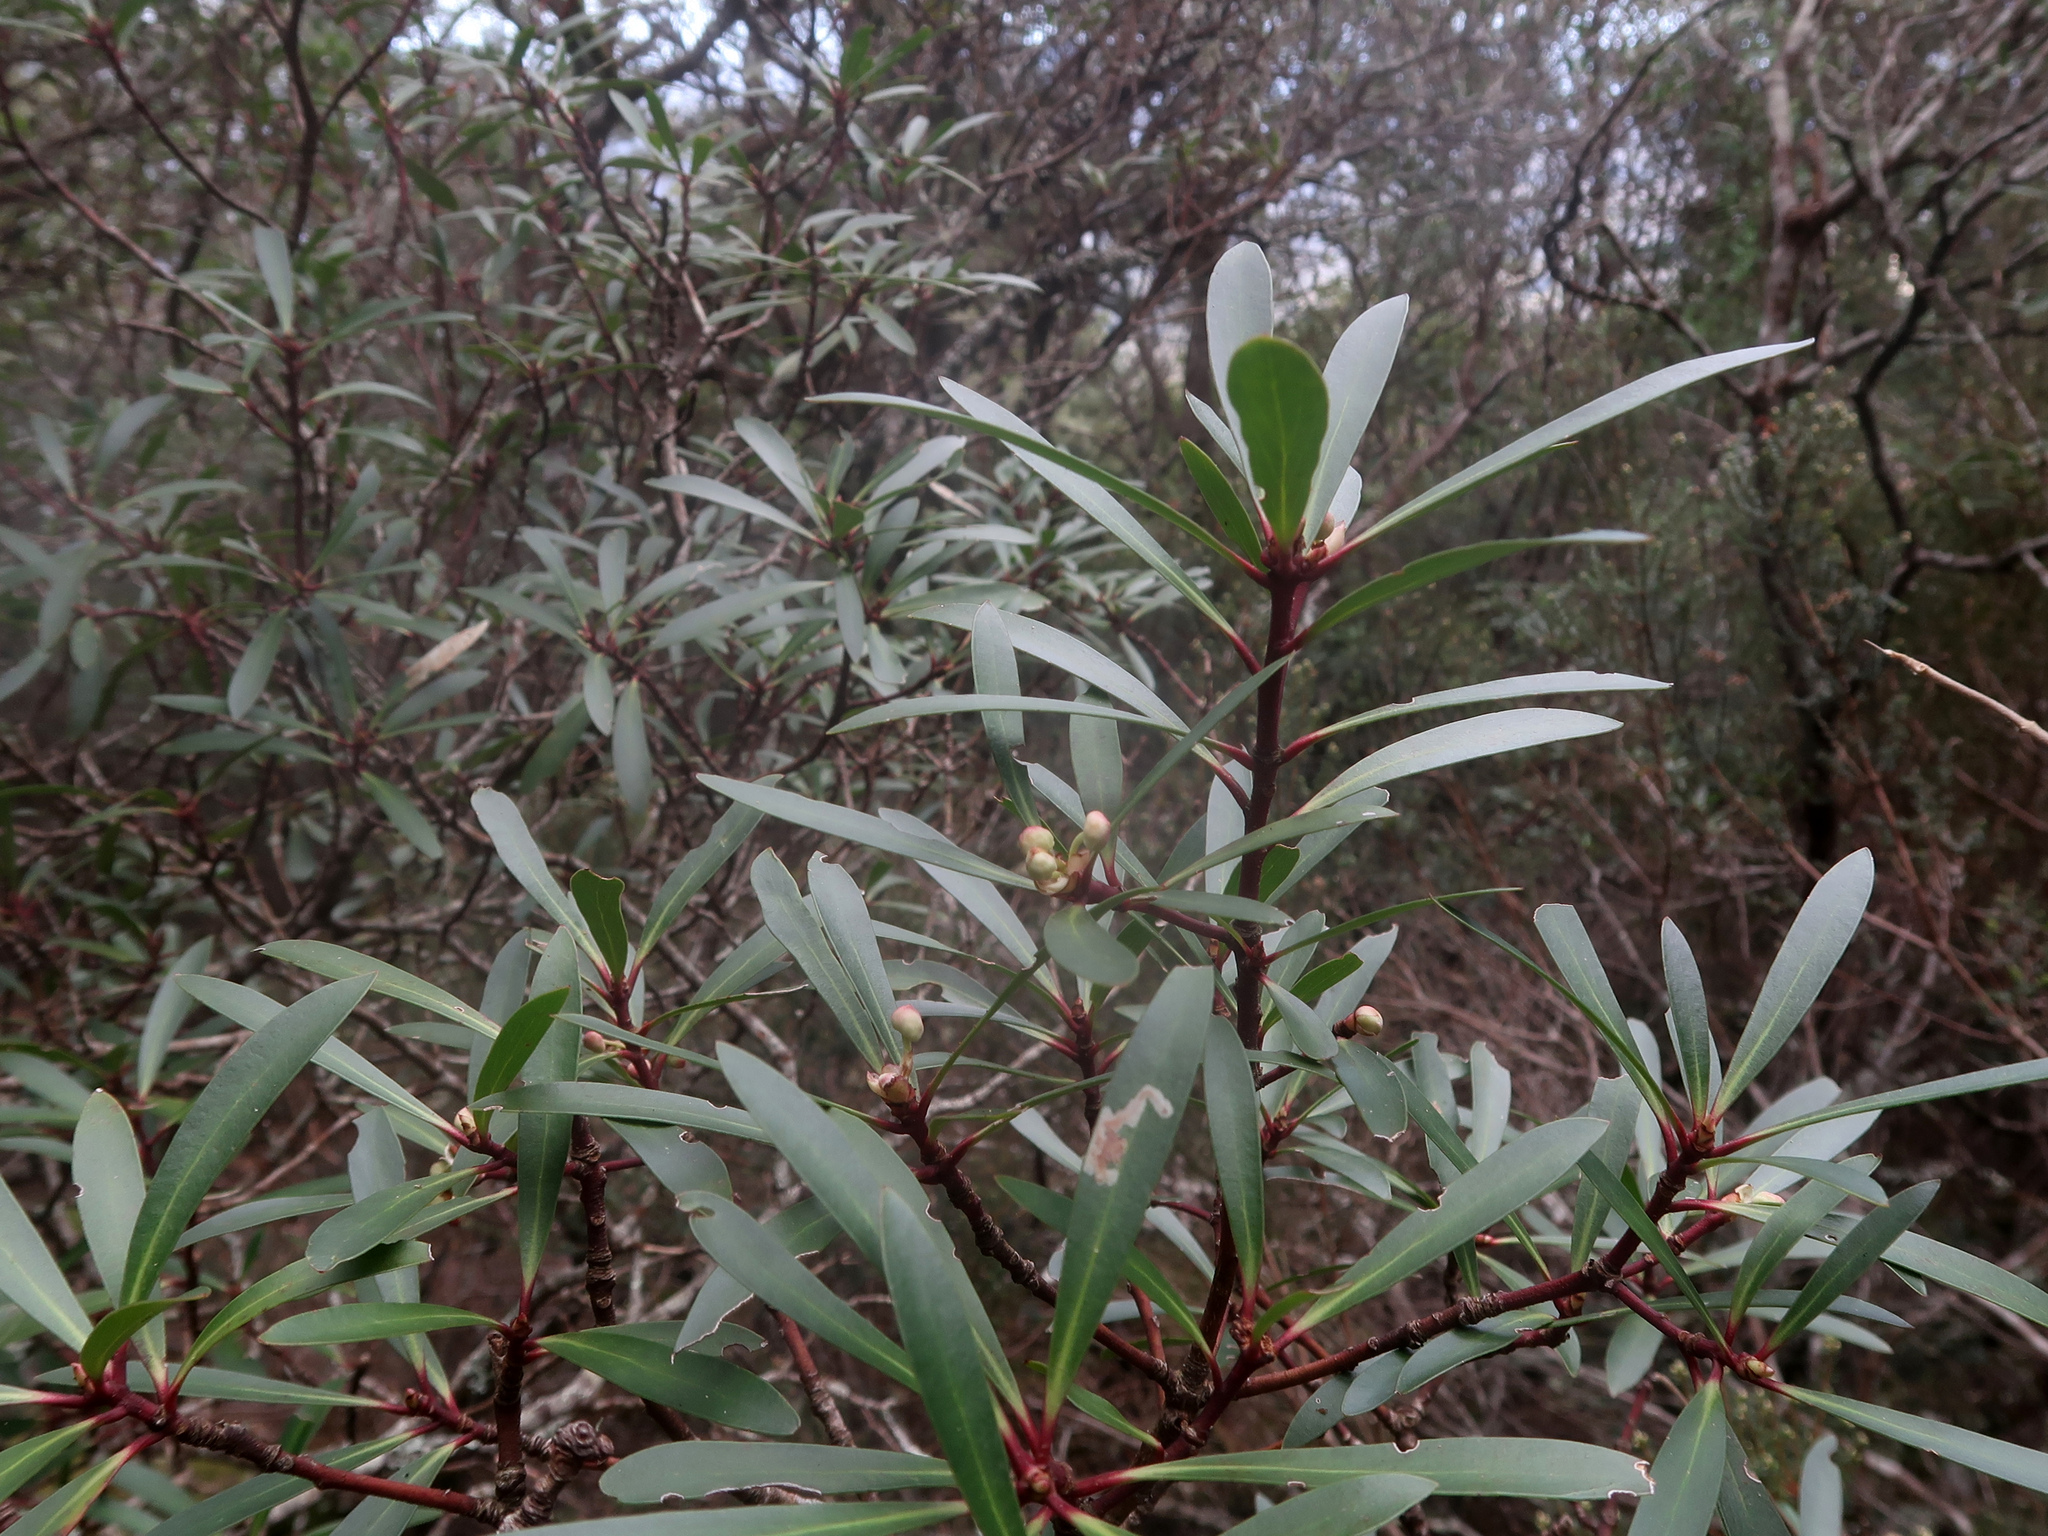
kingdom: Plantae
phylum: Tracheophyta
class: Magnoliopsida
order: Canellales
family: Winteraceae
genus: Drimys
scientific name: Drimys aromatica
